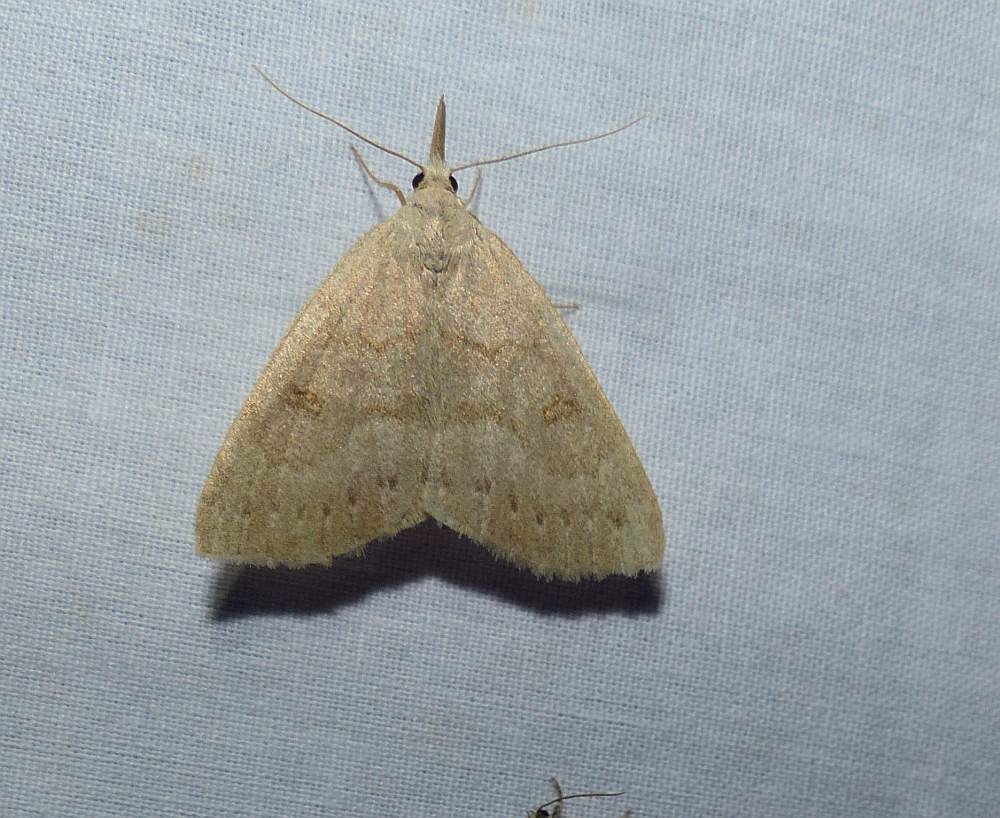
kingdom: Animalia
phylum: Arthropoda
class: Insecta
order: Lepidoptera
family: Erebidae
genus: Macrochilo
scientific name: Macrochilo morbidalis
